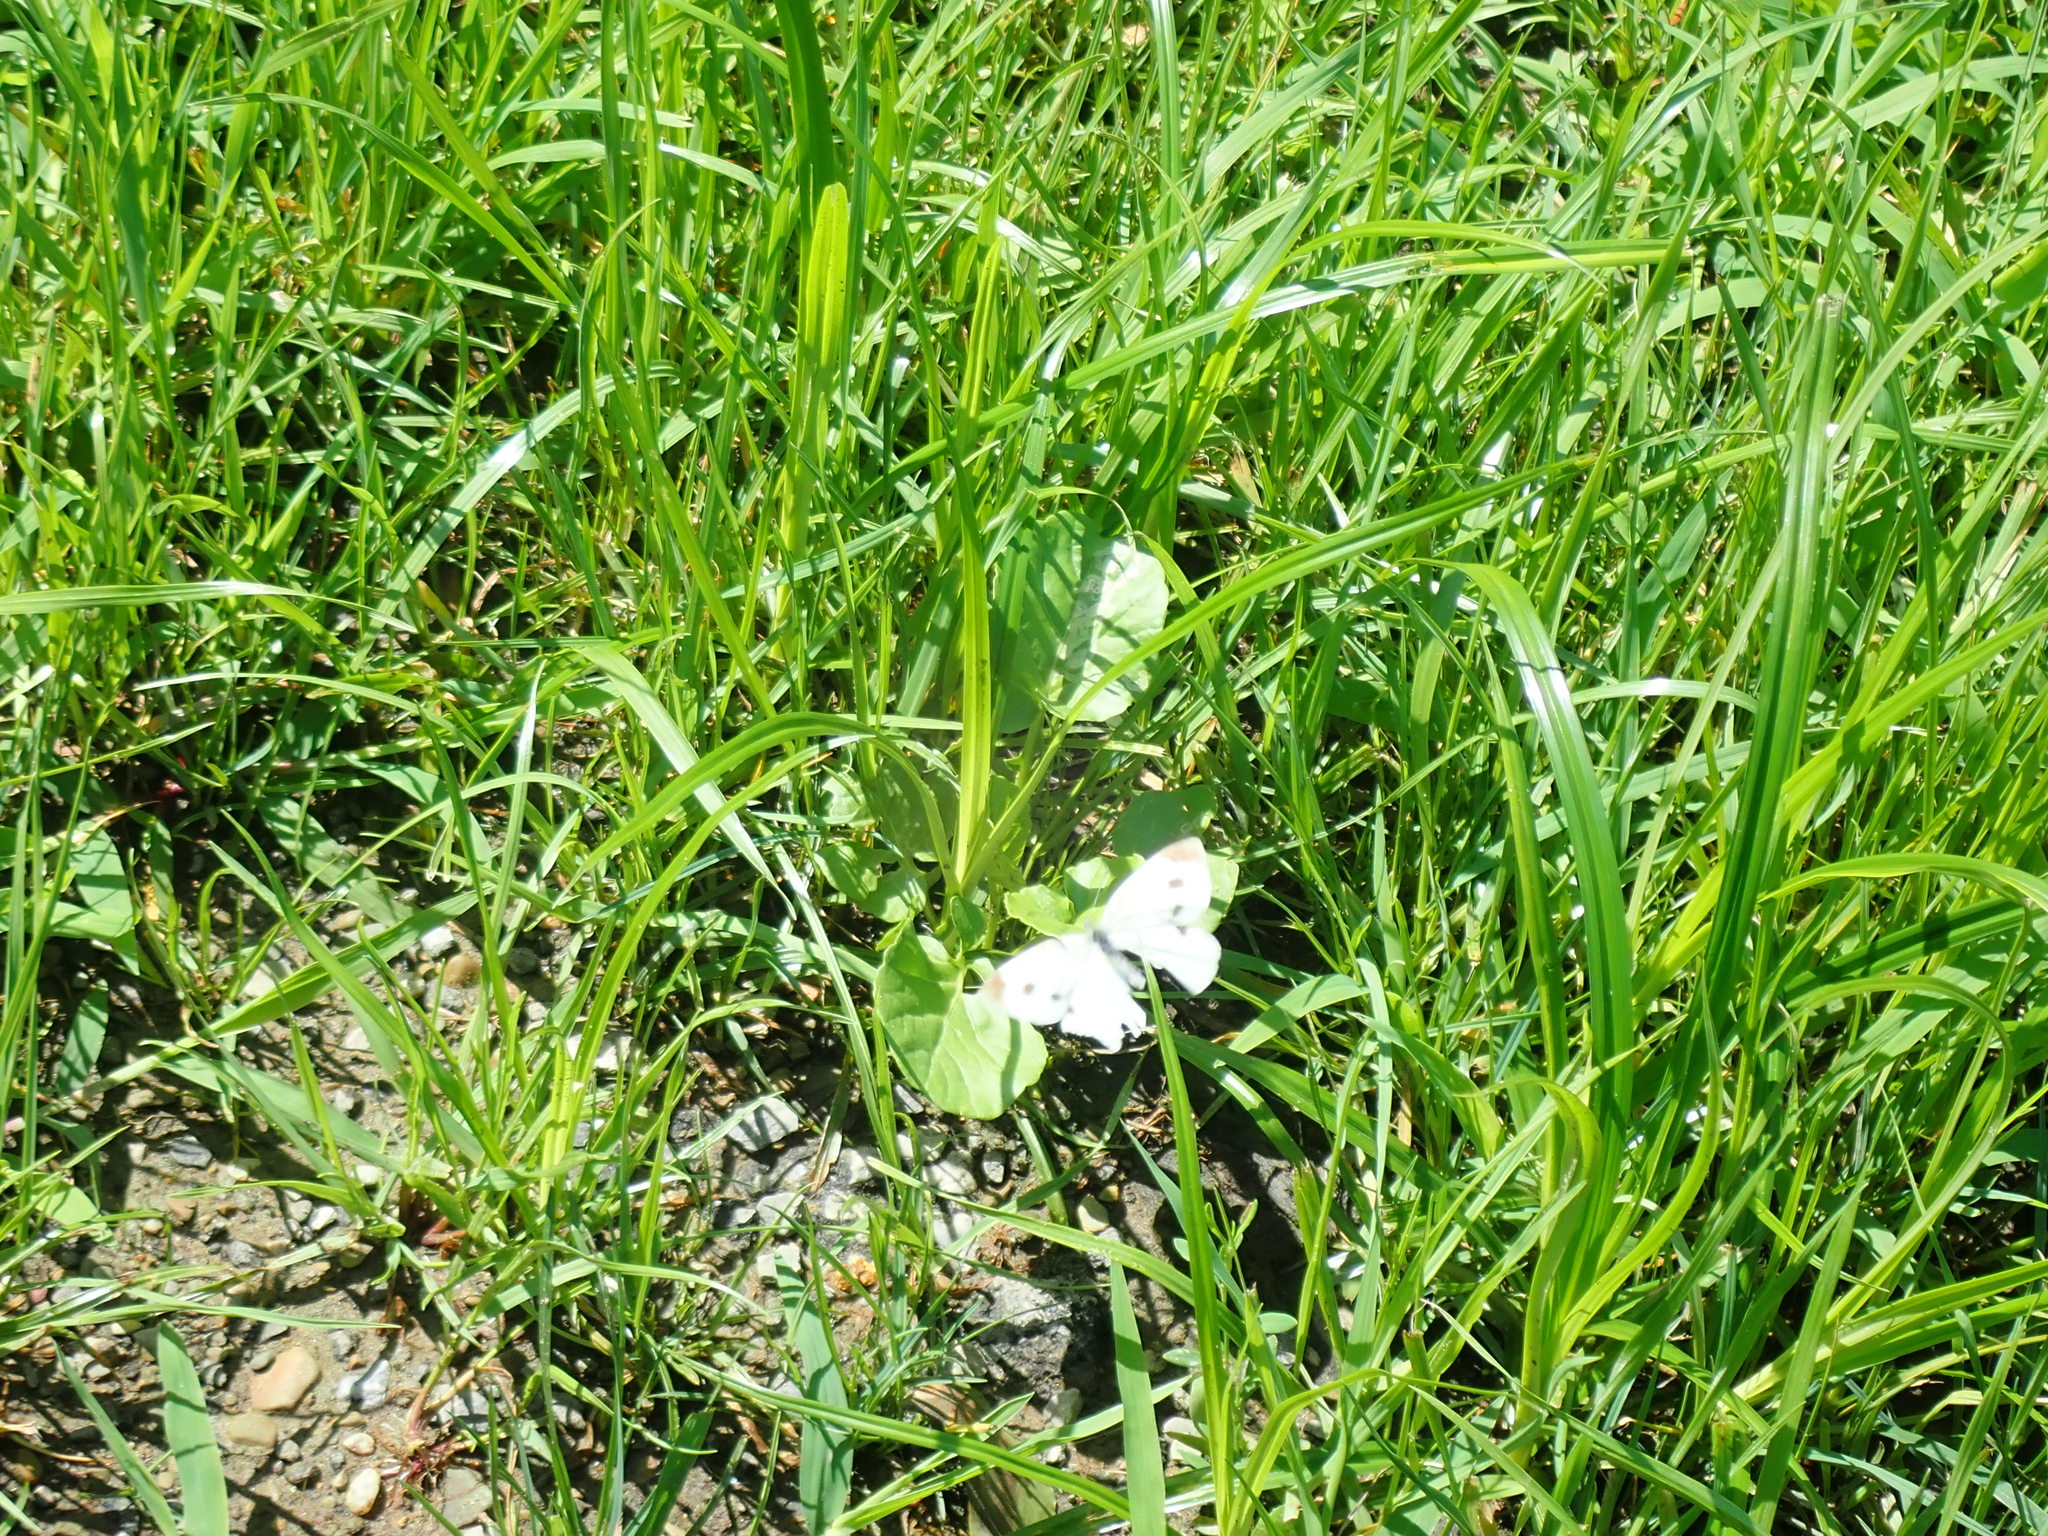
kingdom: Animalia
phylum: Arthropoda
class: Insecta
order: Lepidoptera
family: Pieridae
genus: Pieris
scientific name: Pieris rapae
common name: Small white
